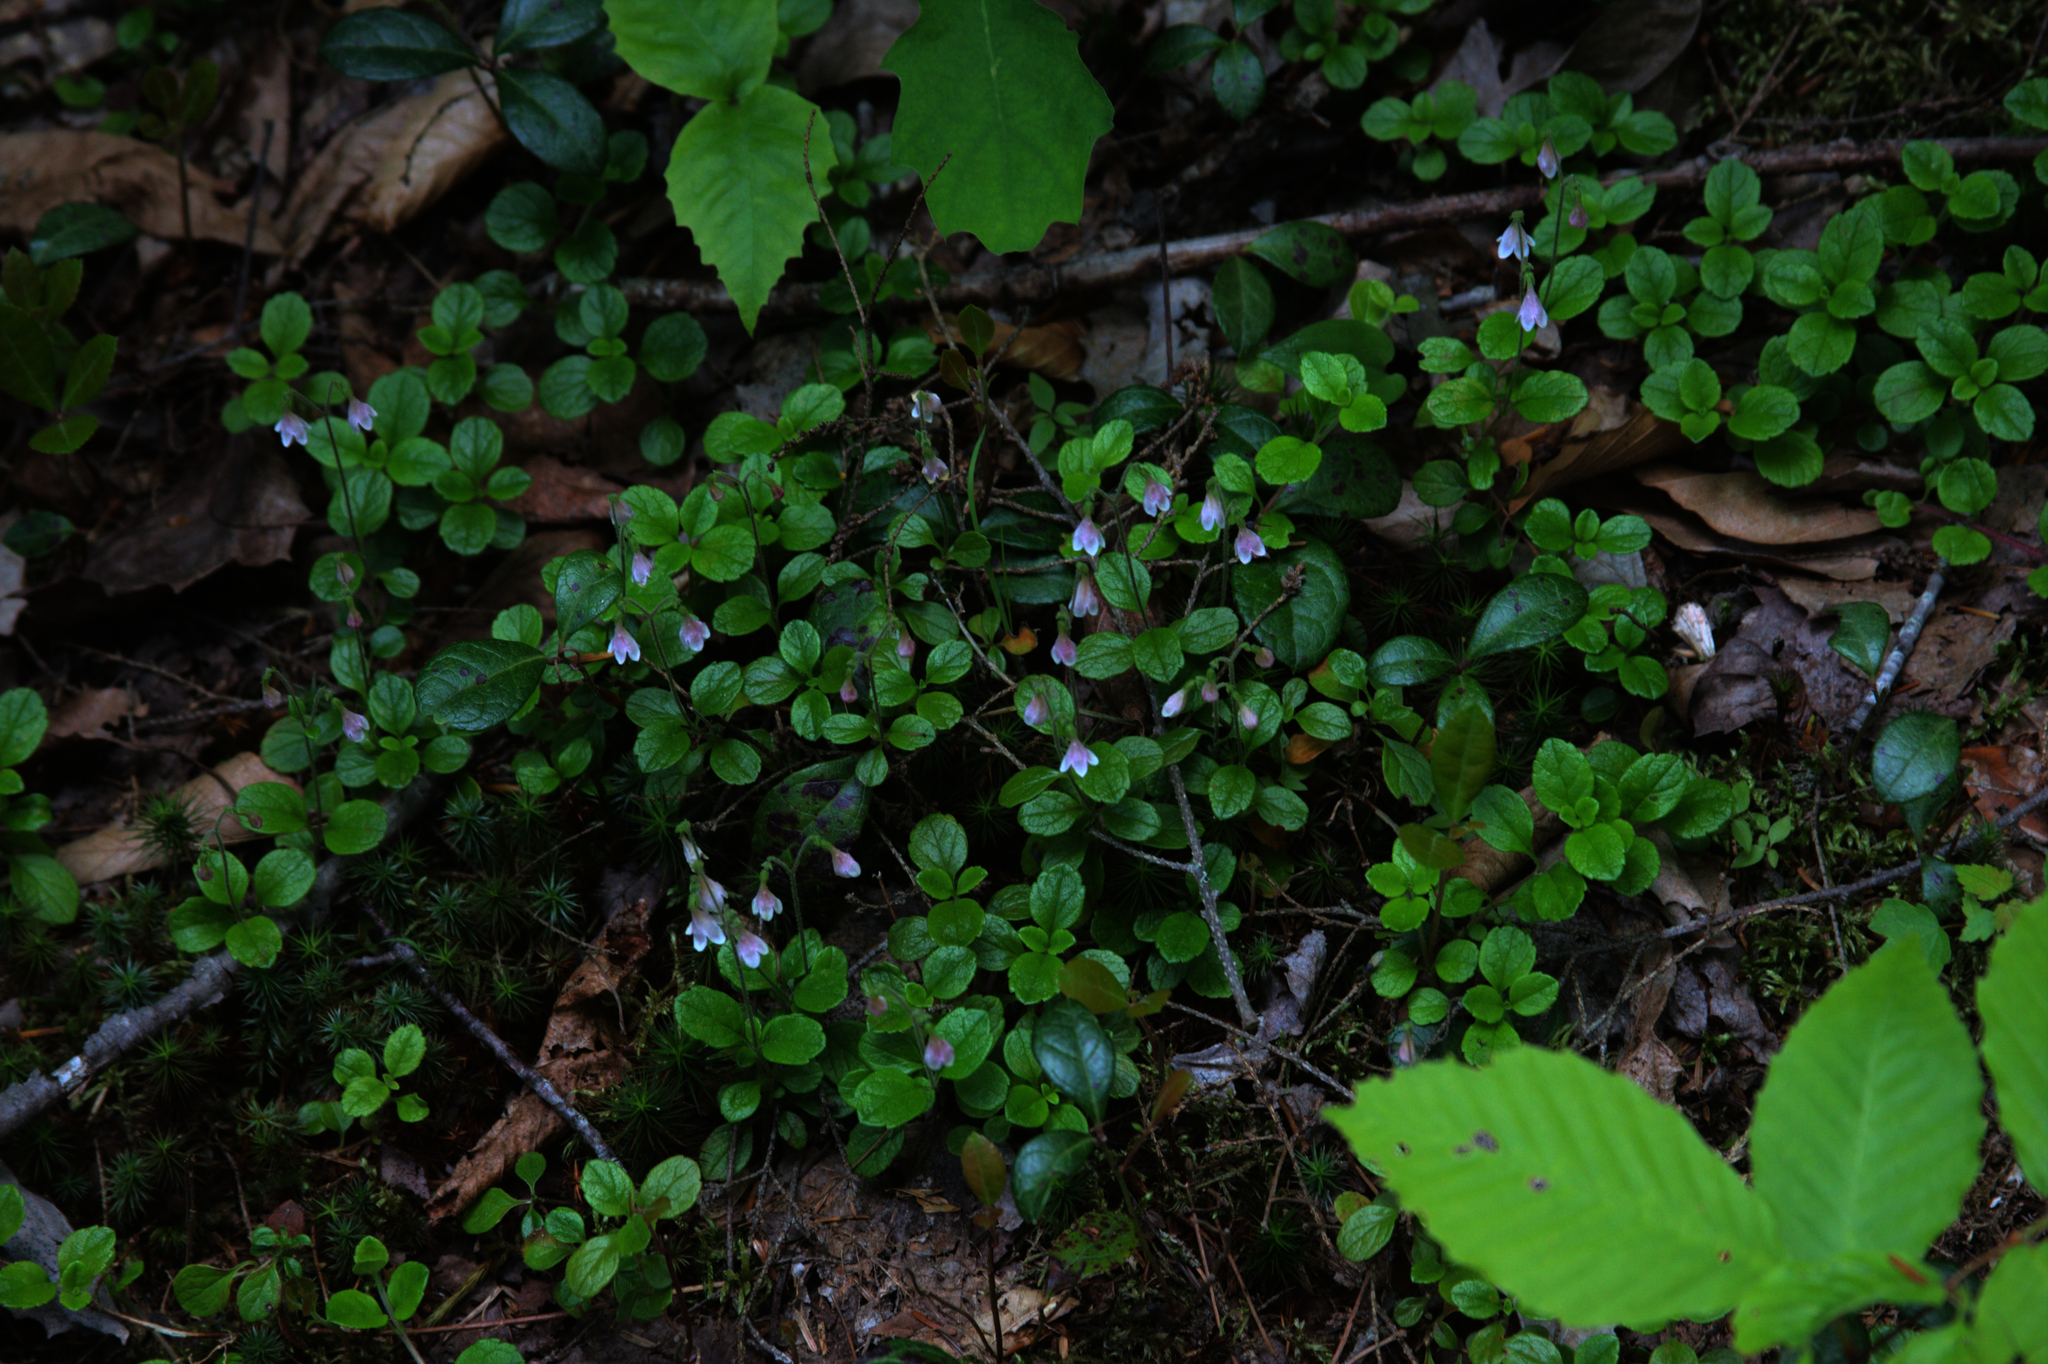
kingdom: Plantae
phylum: Tracheophyta
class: Magnoliopsida
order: Dipsacales
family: Caprifoliaceae
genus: Linnaea
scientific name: Linnaea borealis
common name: Twinflower
